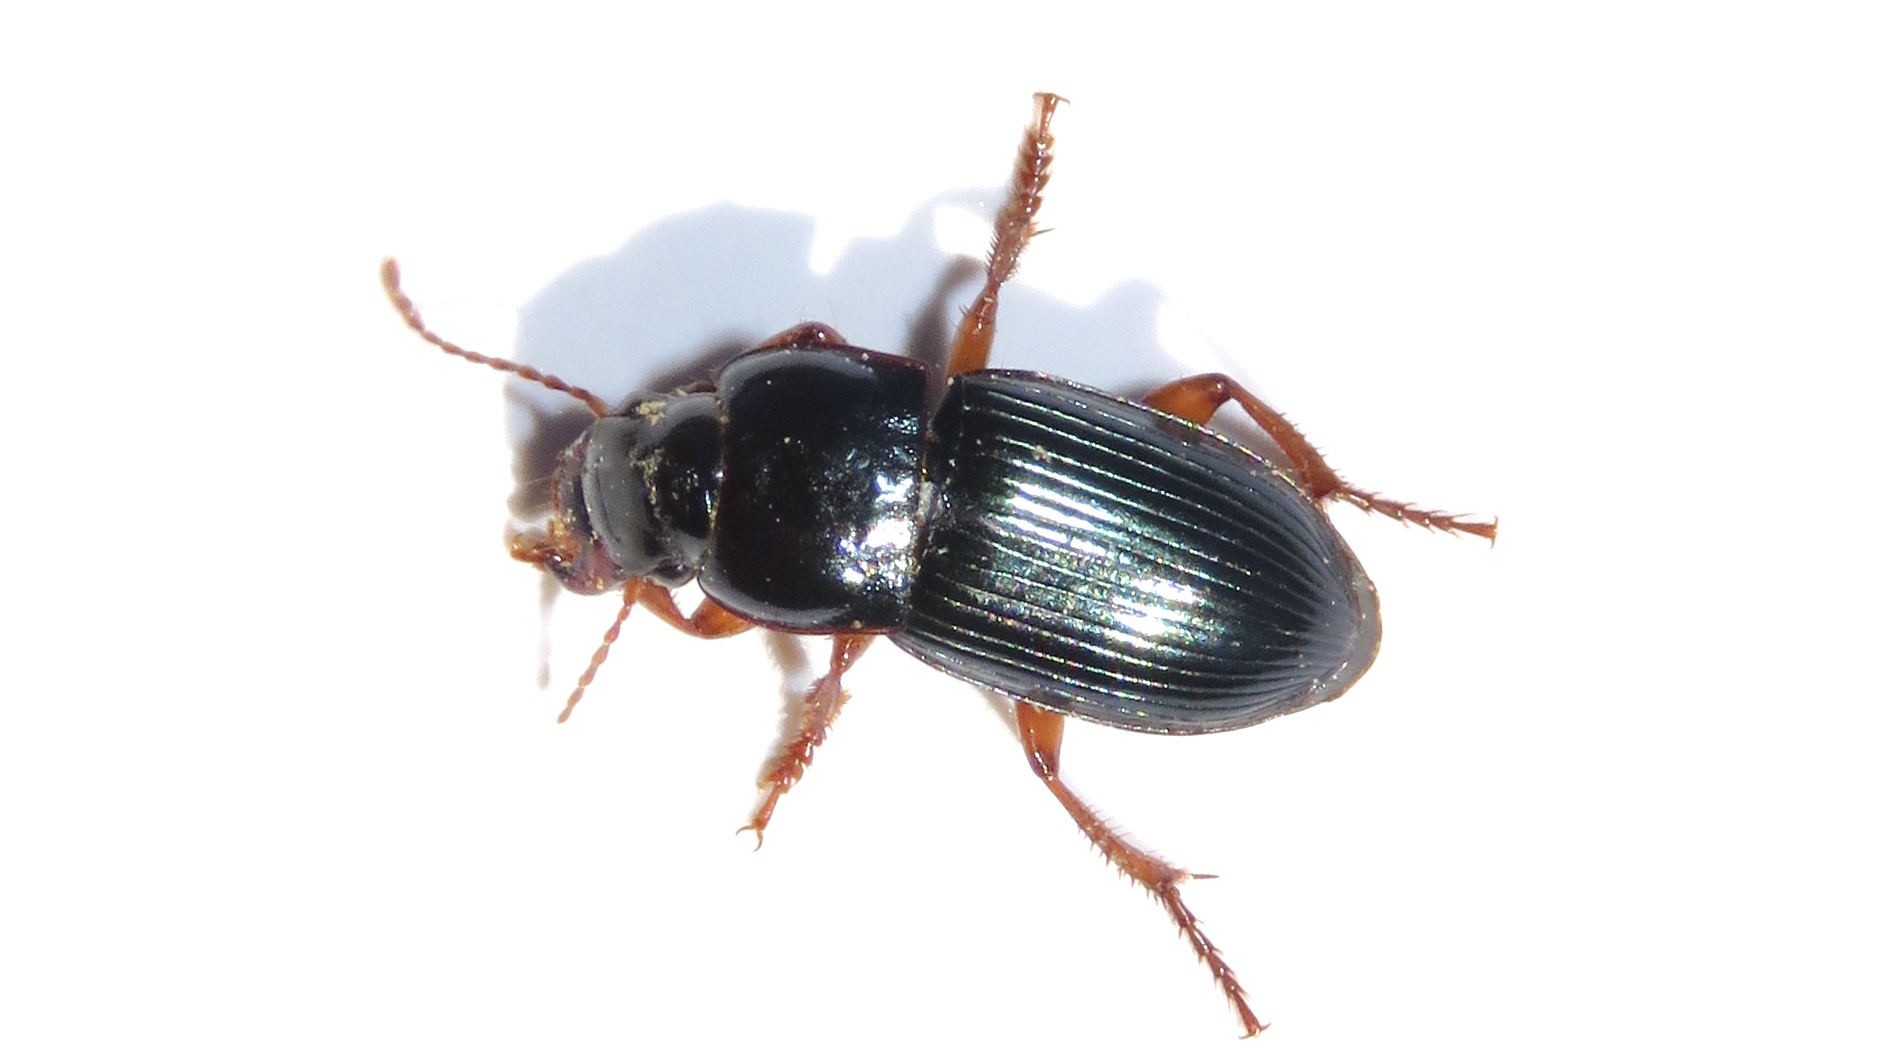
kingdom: Animalia
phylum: Arthropoda
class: Insecta
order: Coleoptera
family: Carabidae
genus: Harpalus
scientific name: Harpalus rubripes
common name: Red-legged harp ground beetle
